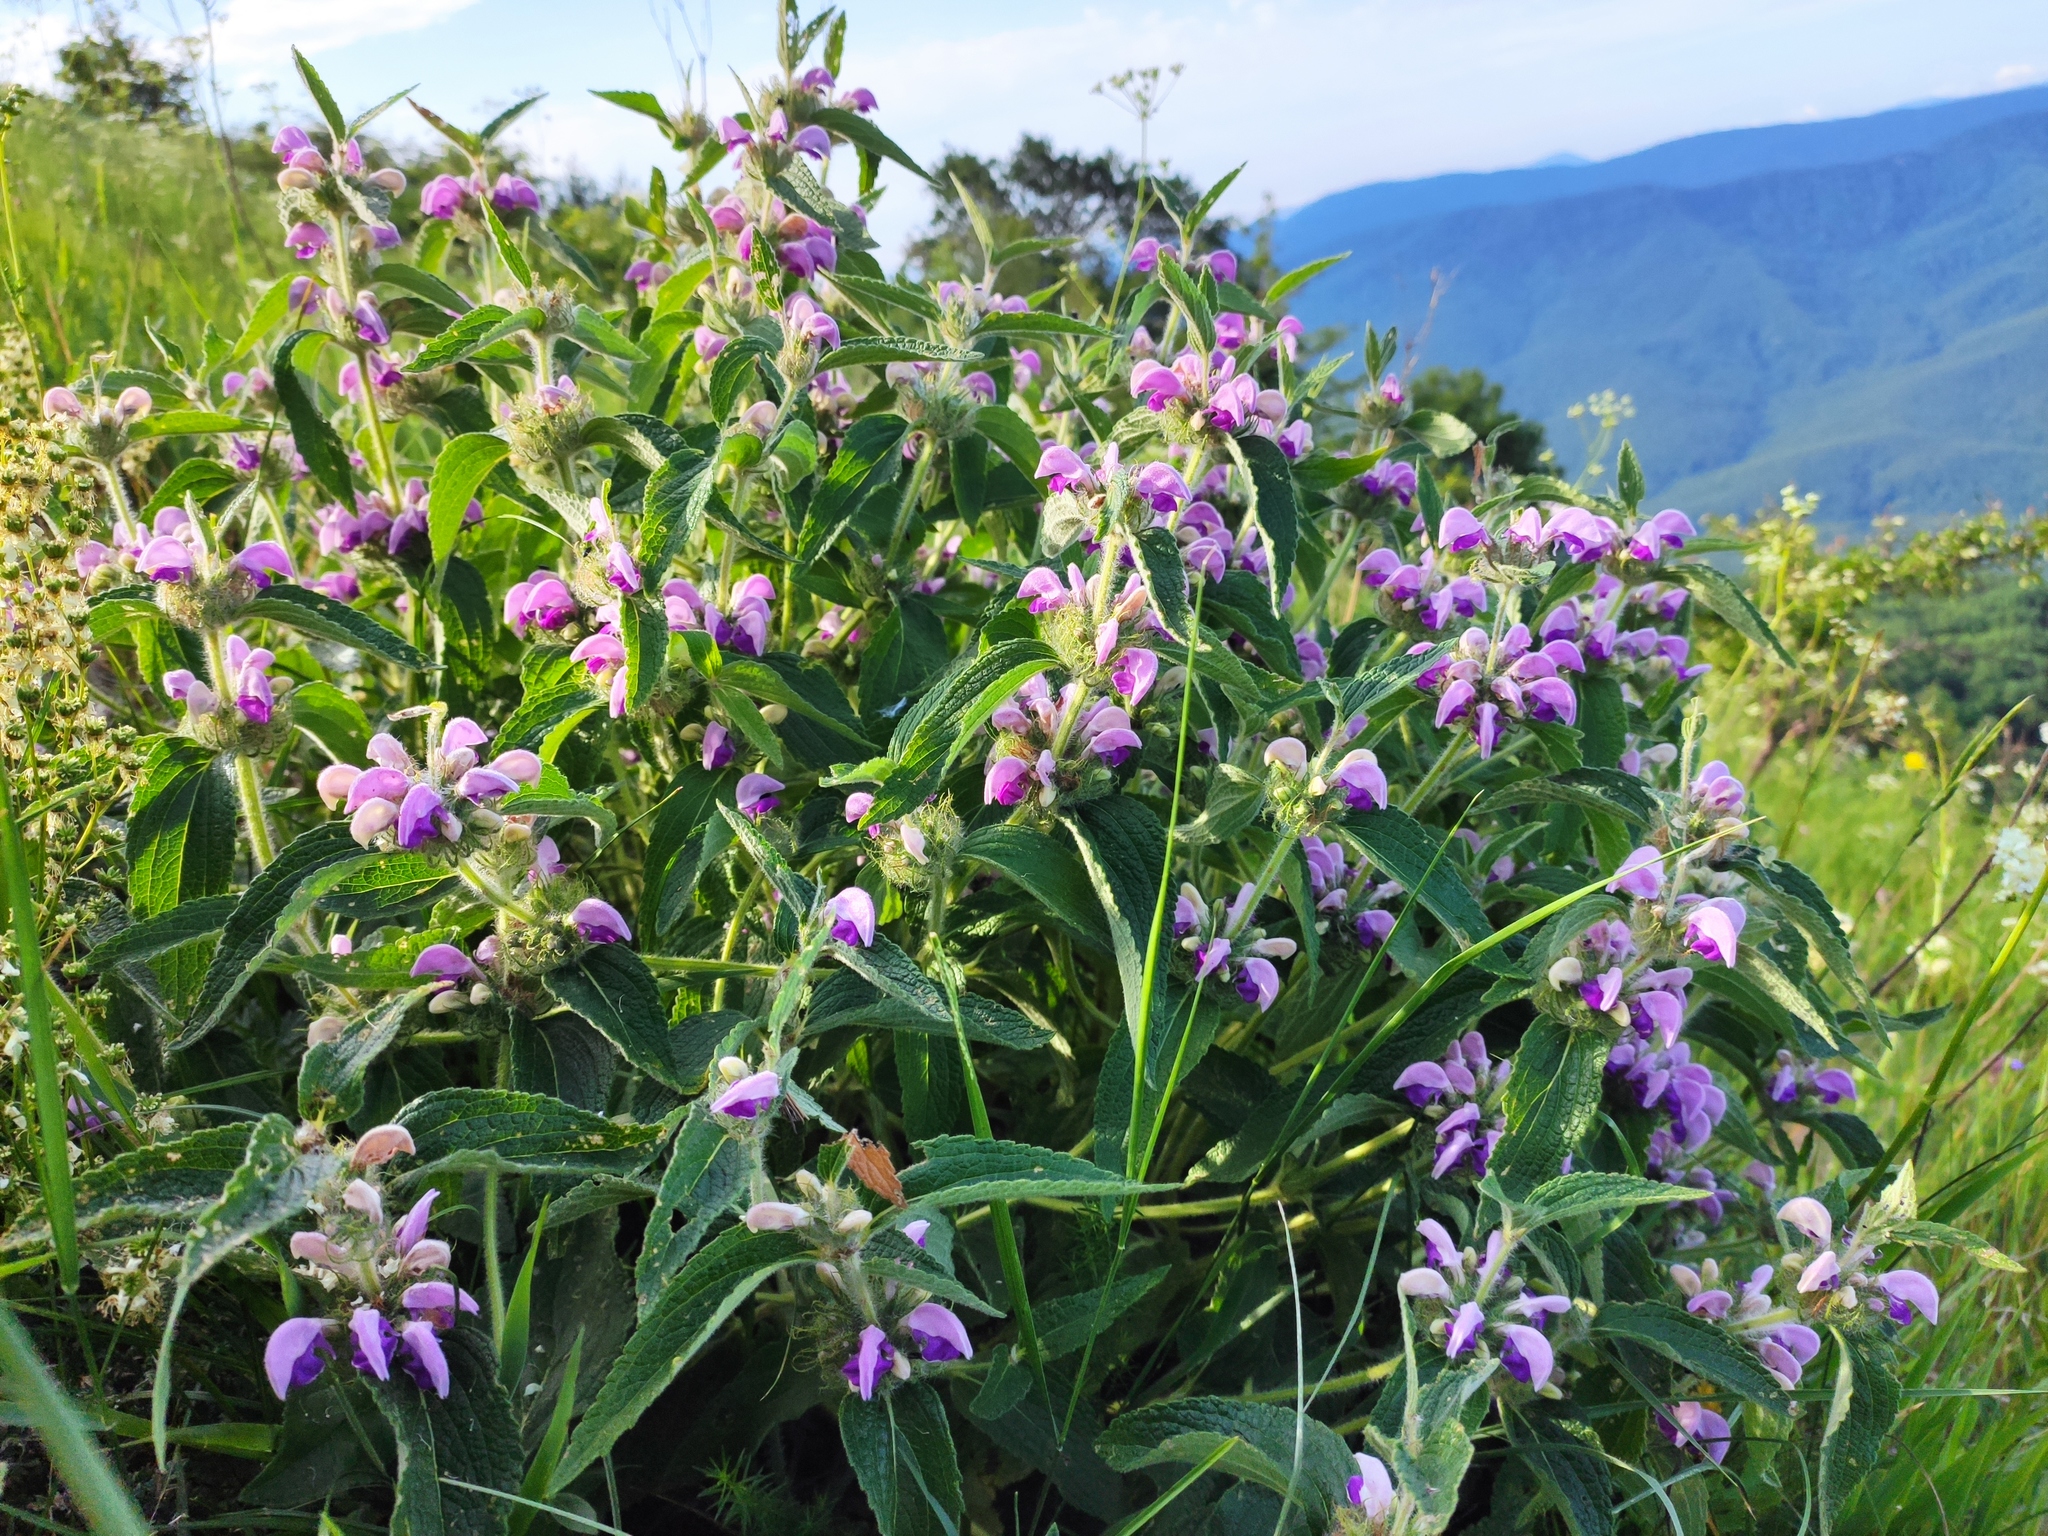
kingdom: Plantae
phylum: Tracheophyta
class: Magnoliopsida
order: Lamiales
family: Lamiaceae
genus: Phlomis
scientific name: Phlomis herba-venti
